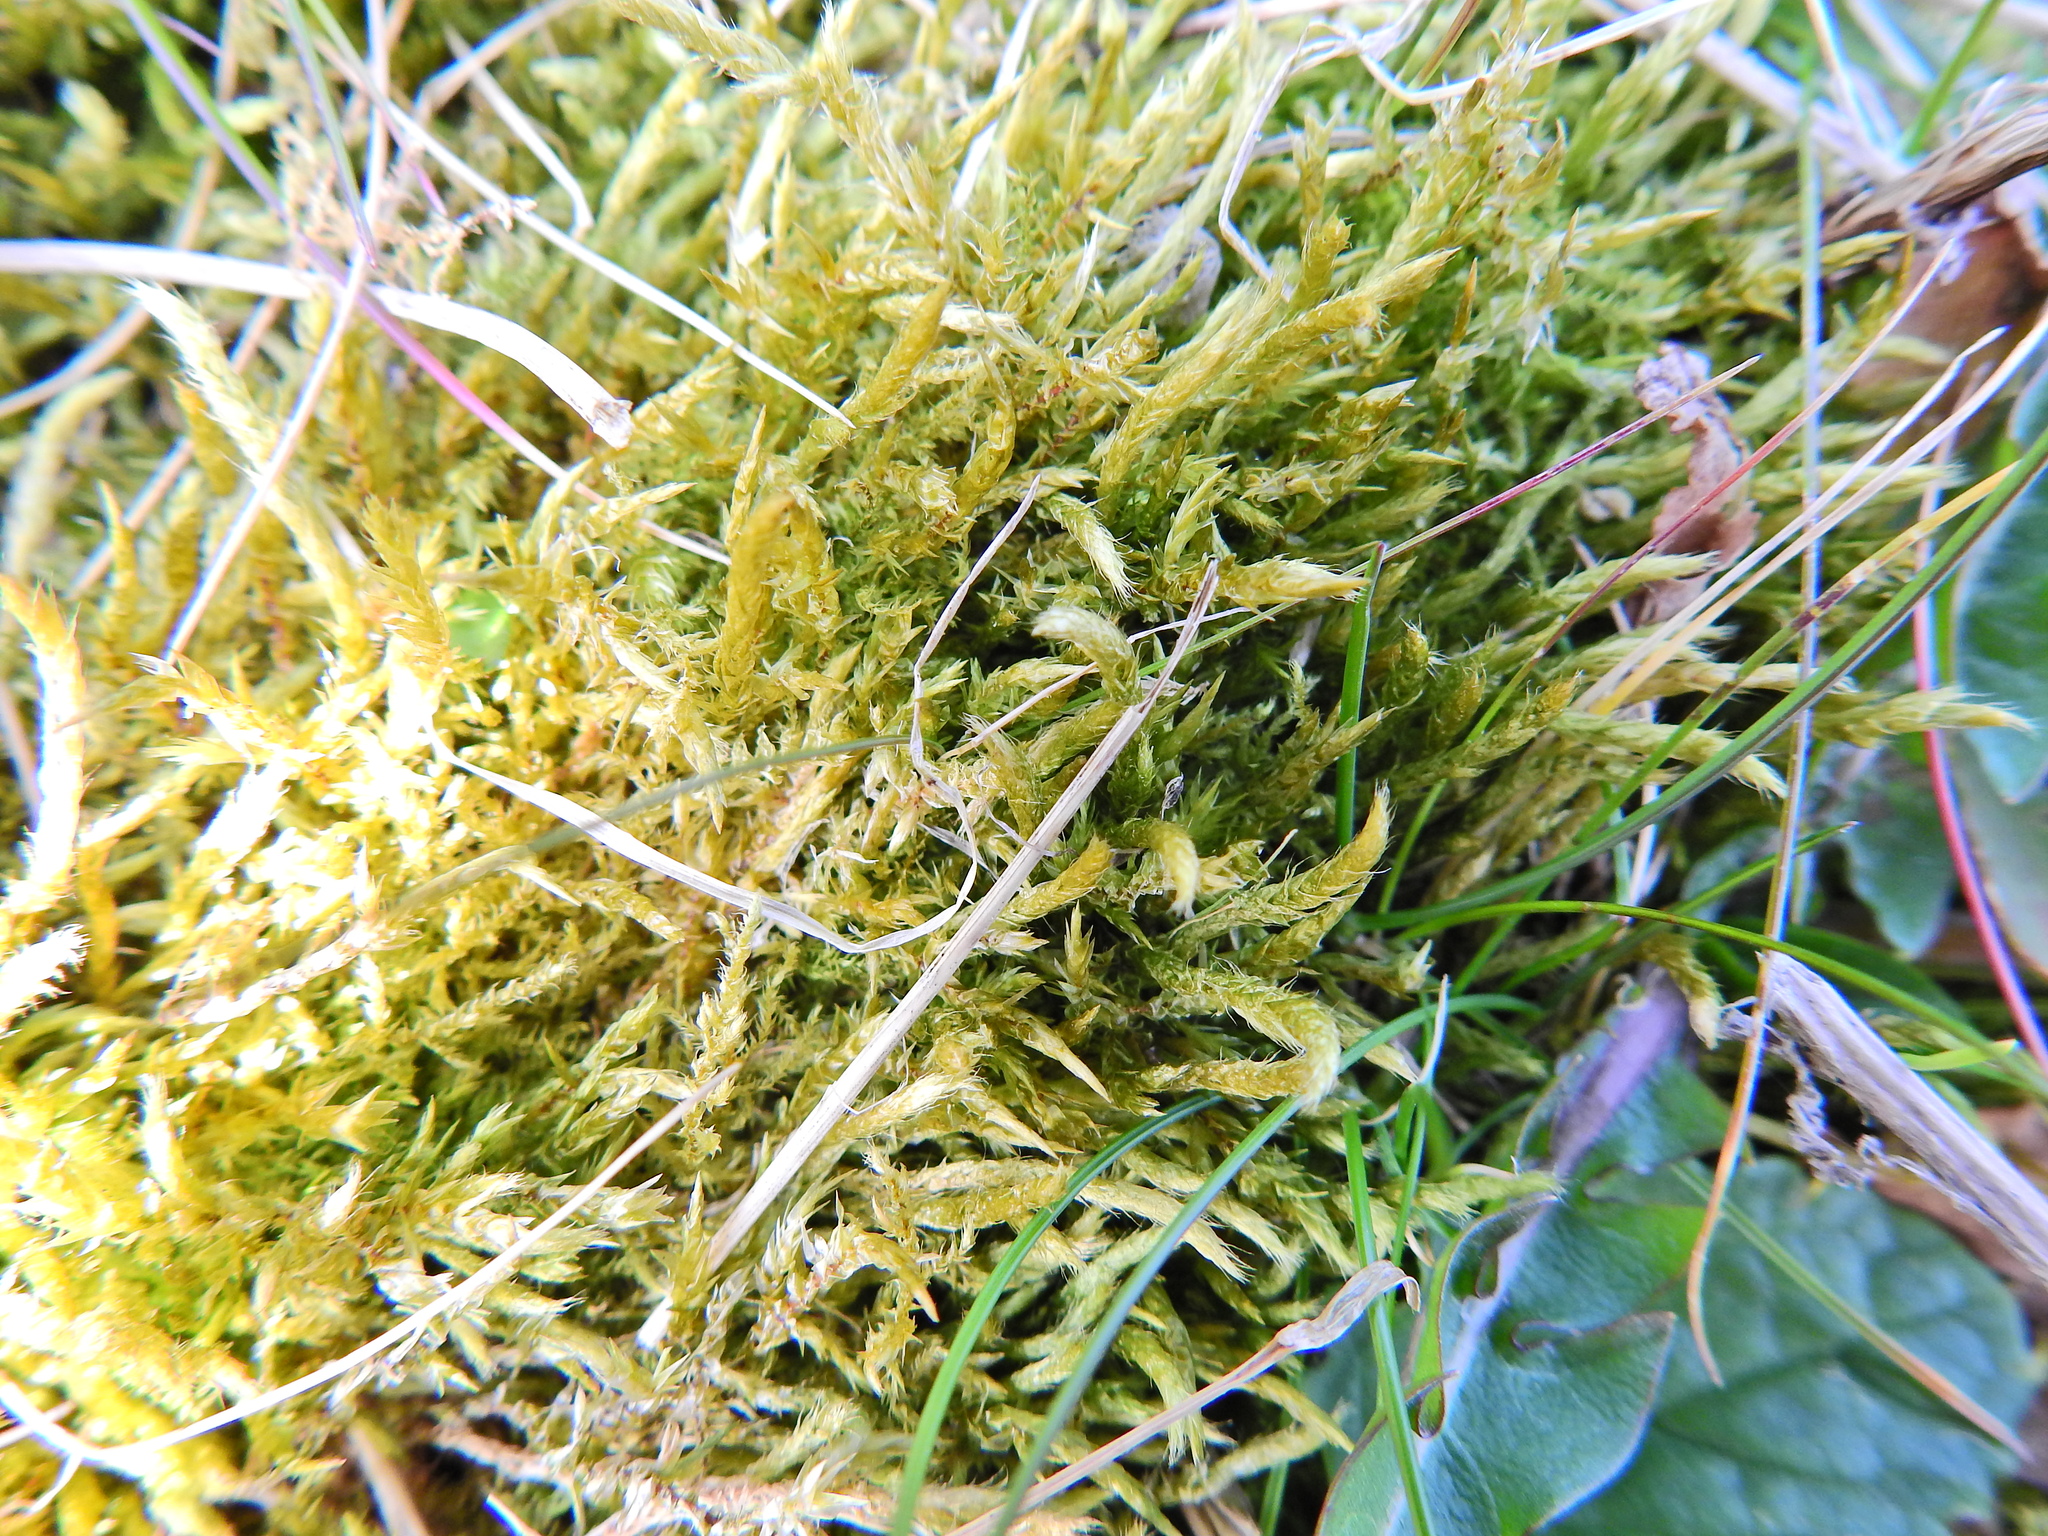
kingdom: Plantae
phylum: Bryophyta
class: Bryopsida
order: Hypnales
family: Brachytheciaceae
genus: Brachythecium
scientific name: Brachythecium albicans
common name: Whitish ragged moss
